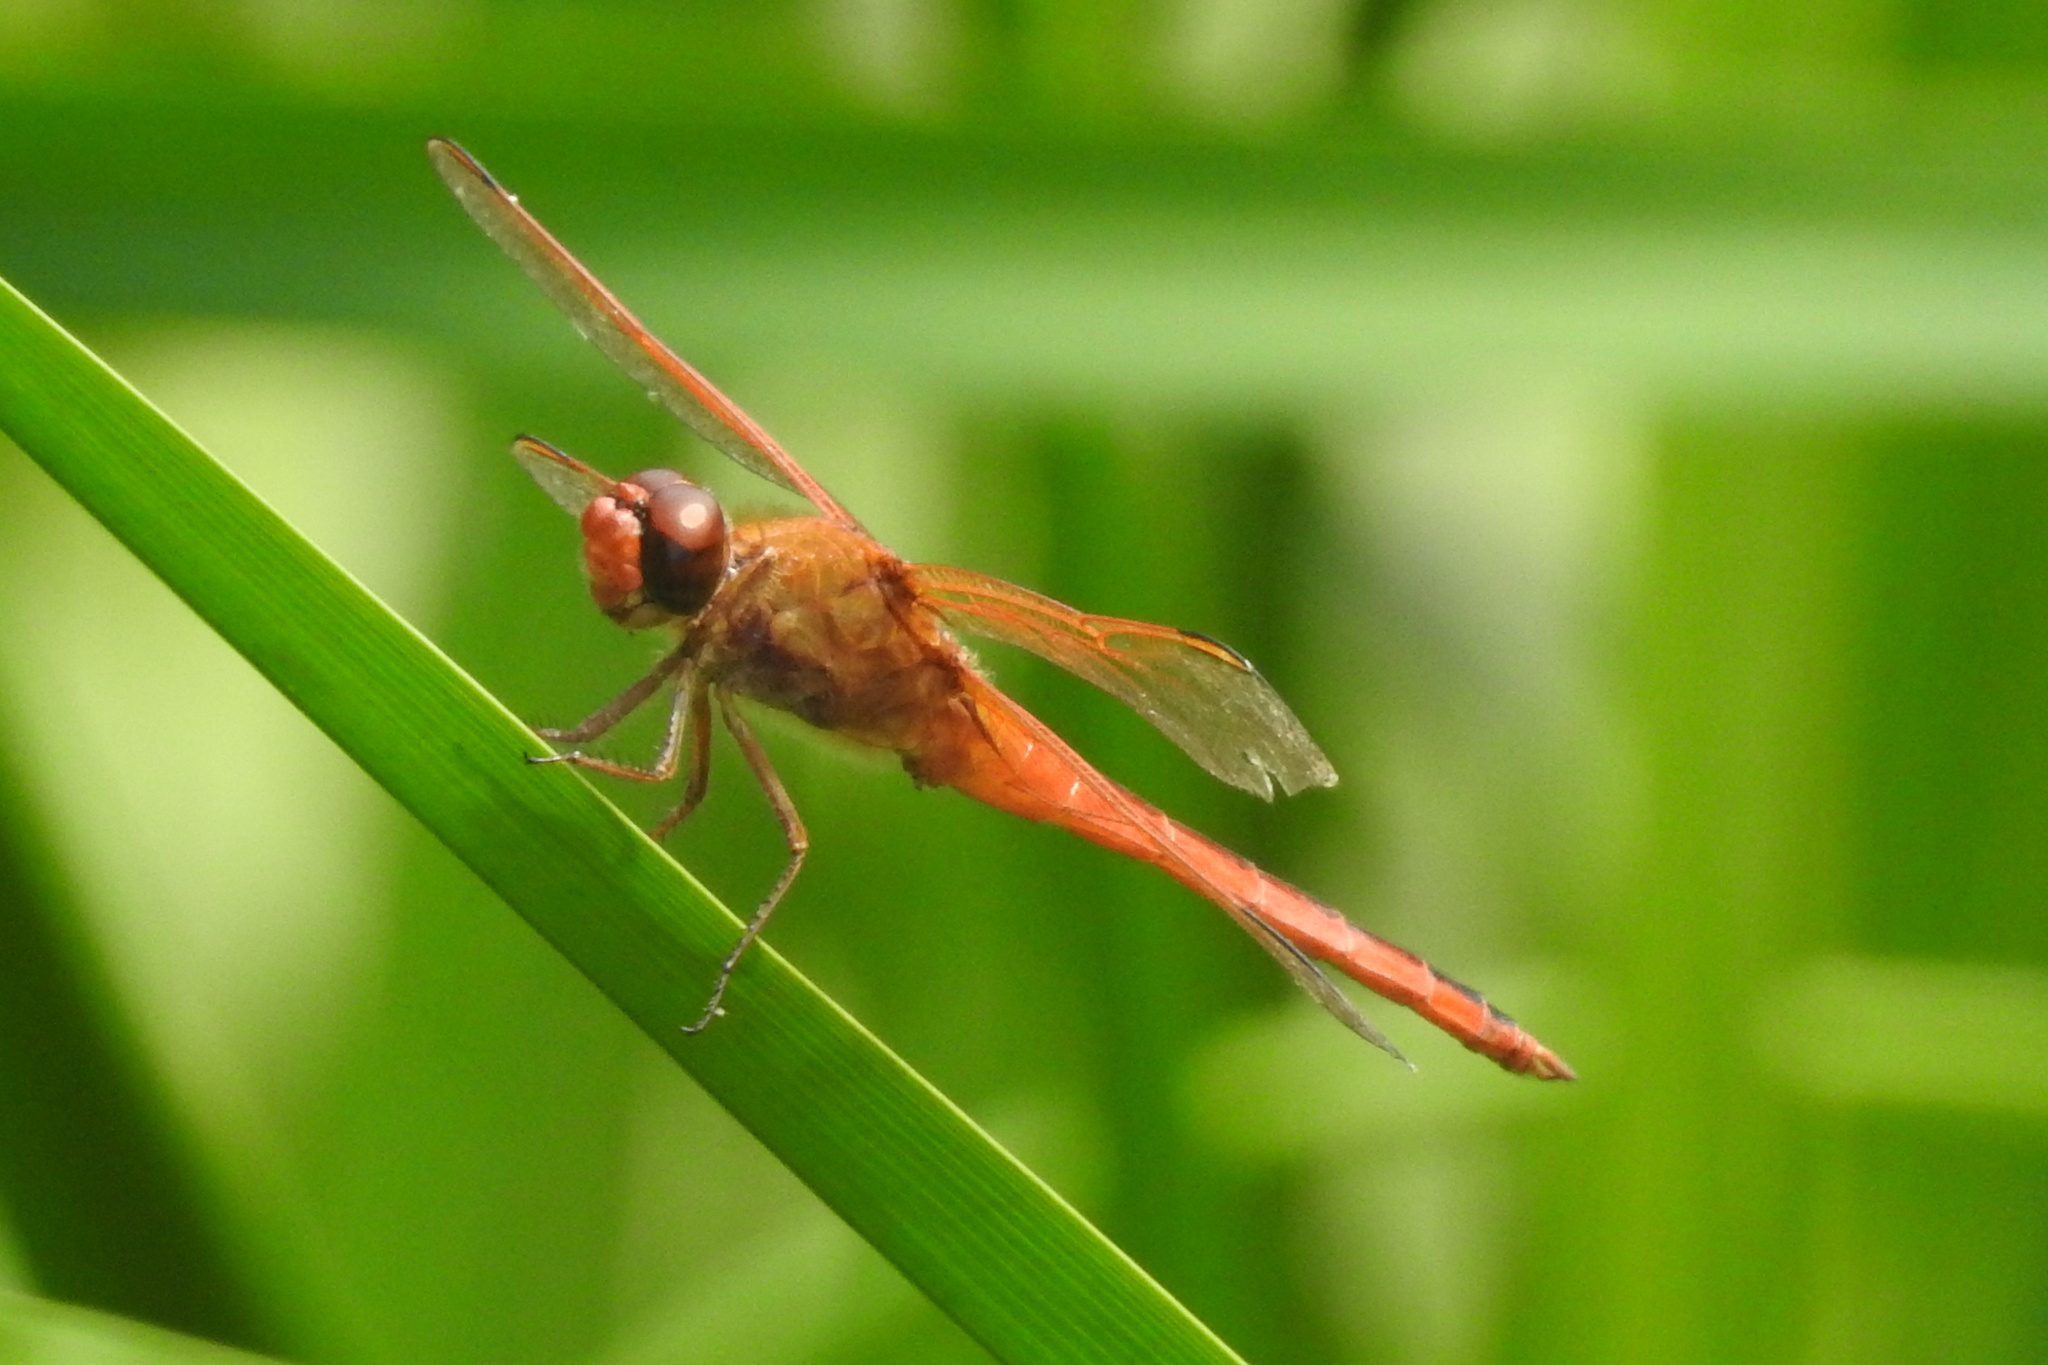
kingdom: Animalia
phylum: Arthropoda
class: Insecta
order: Odonata
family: Libellulidae
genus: Libellula
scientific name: Libellula needhami
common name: Needham's skimmer
